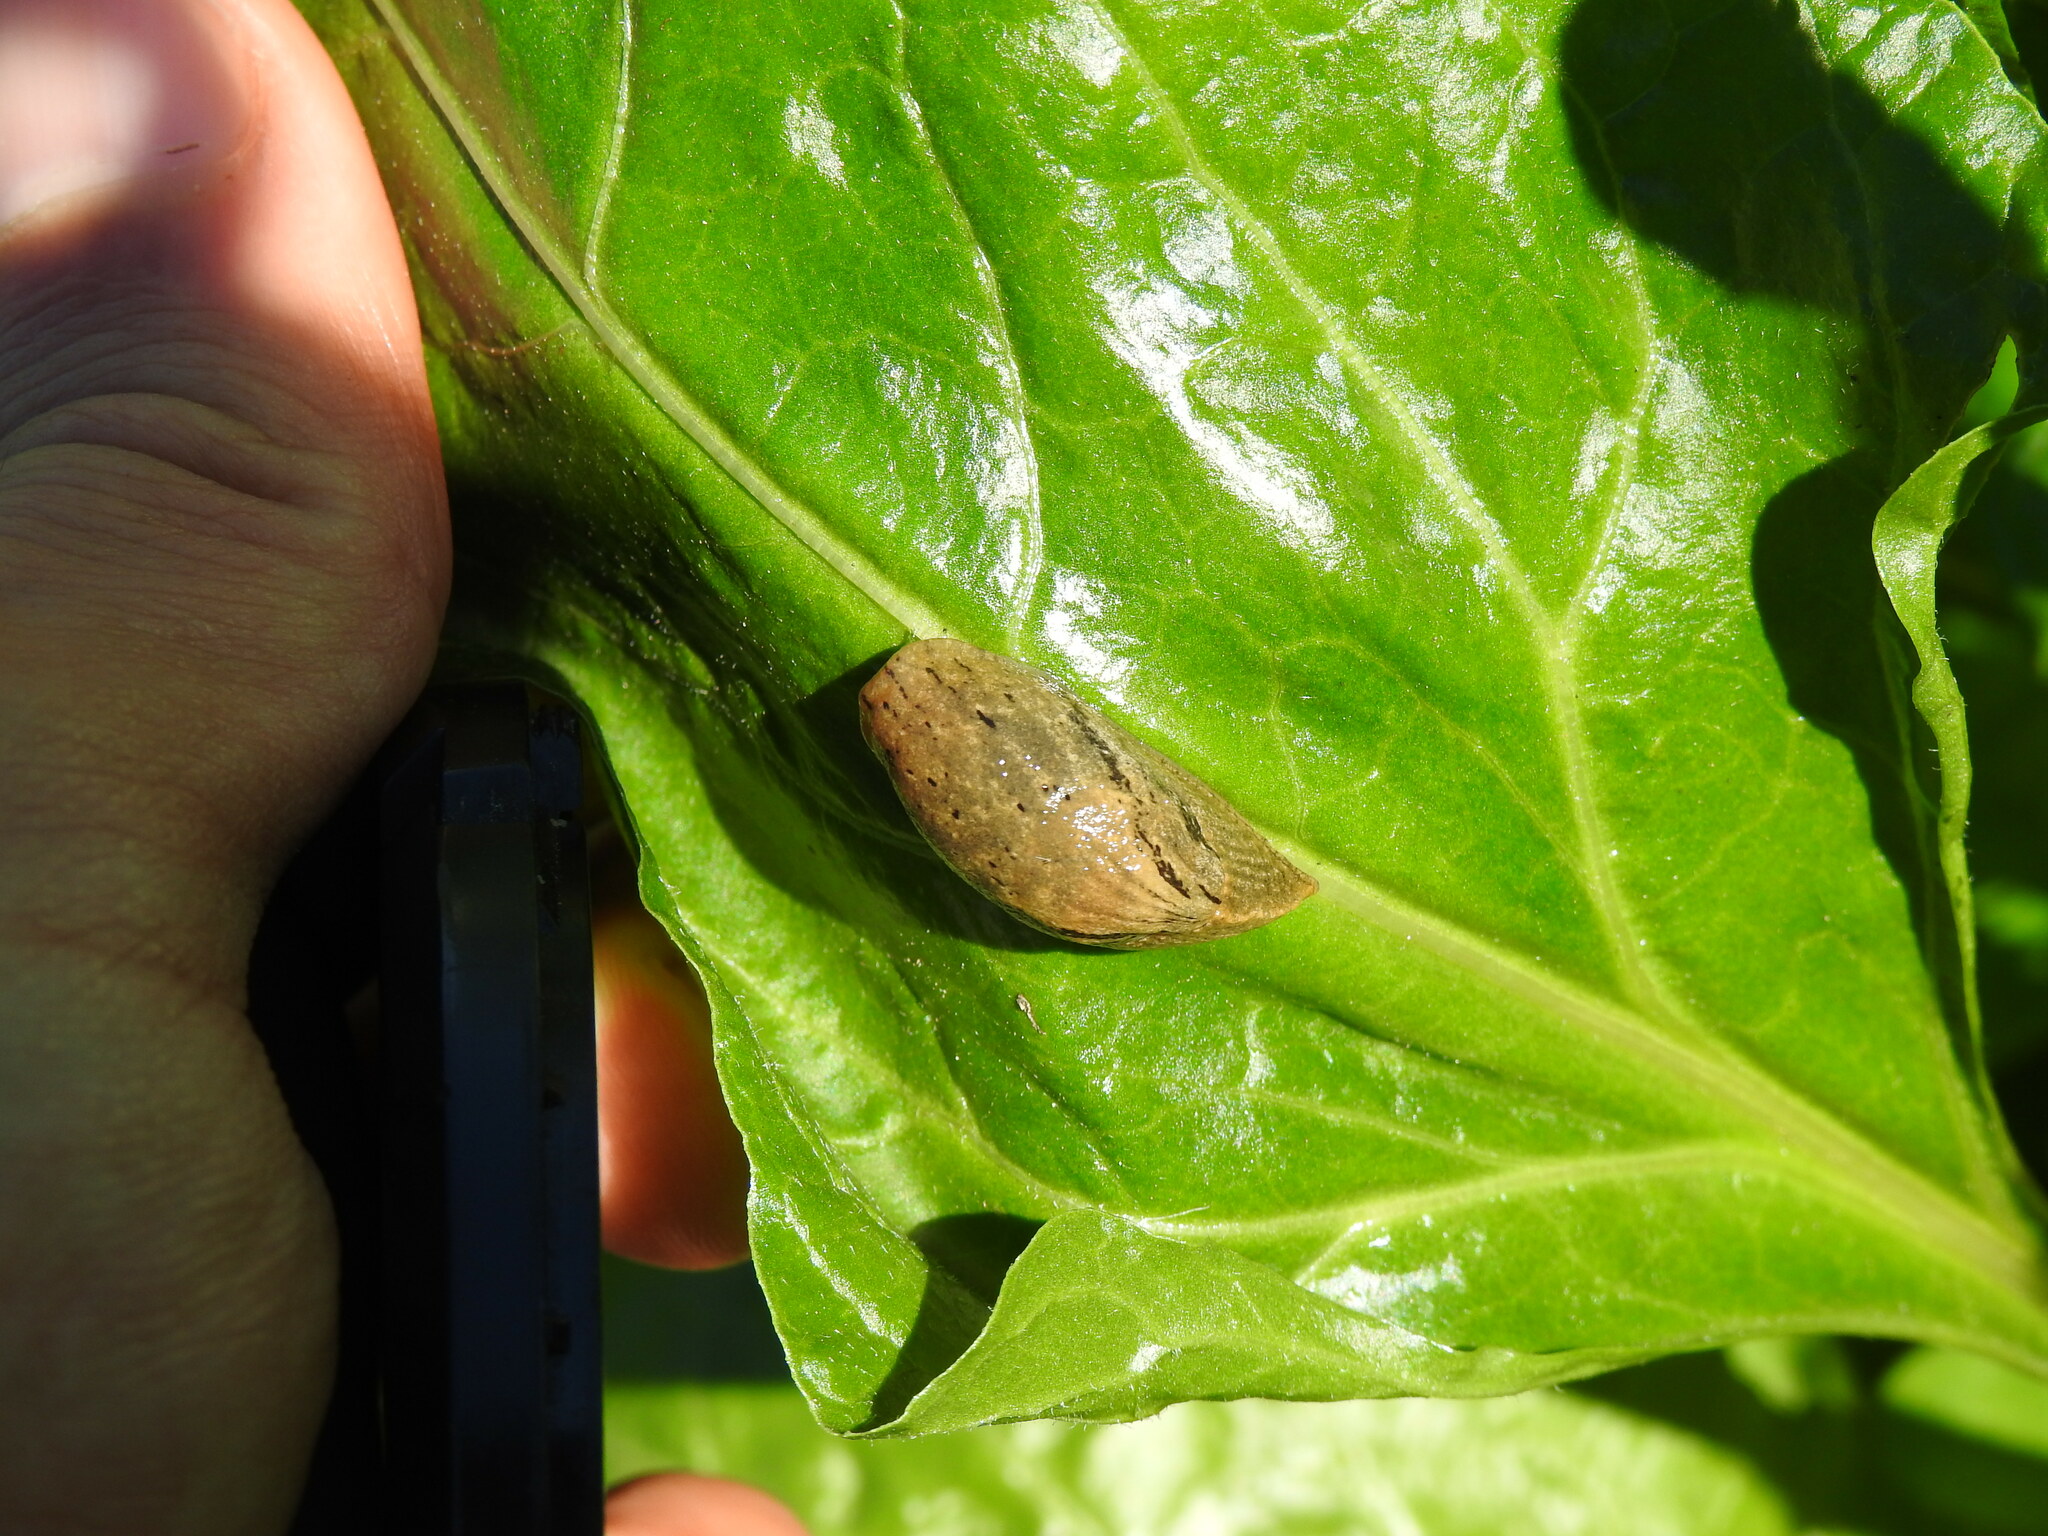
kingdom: Animalia
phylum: Mollusca
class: Gastropoda
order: Stylommatophora
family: Parmacellidae
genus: Drusia
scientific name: Drusia valenciennii
